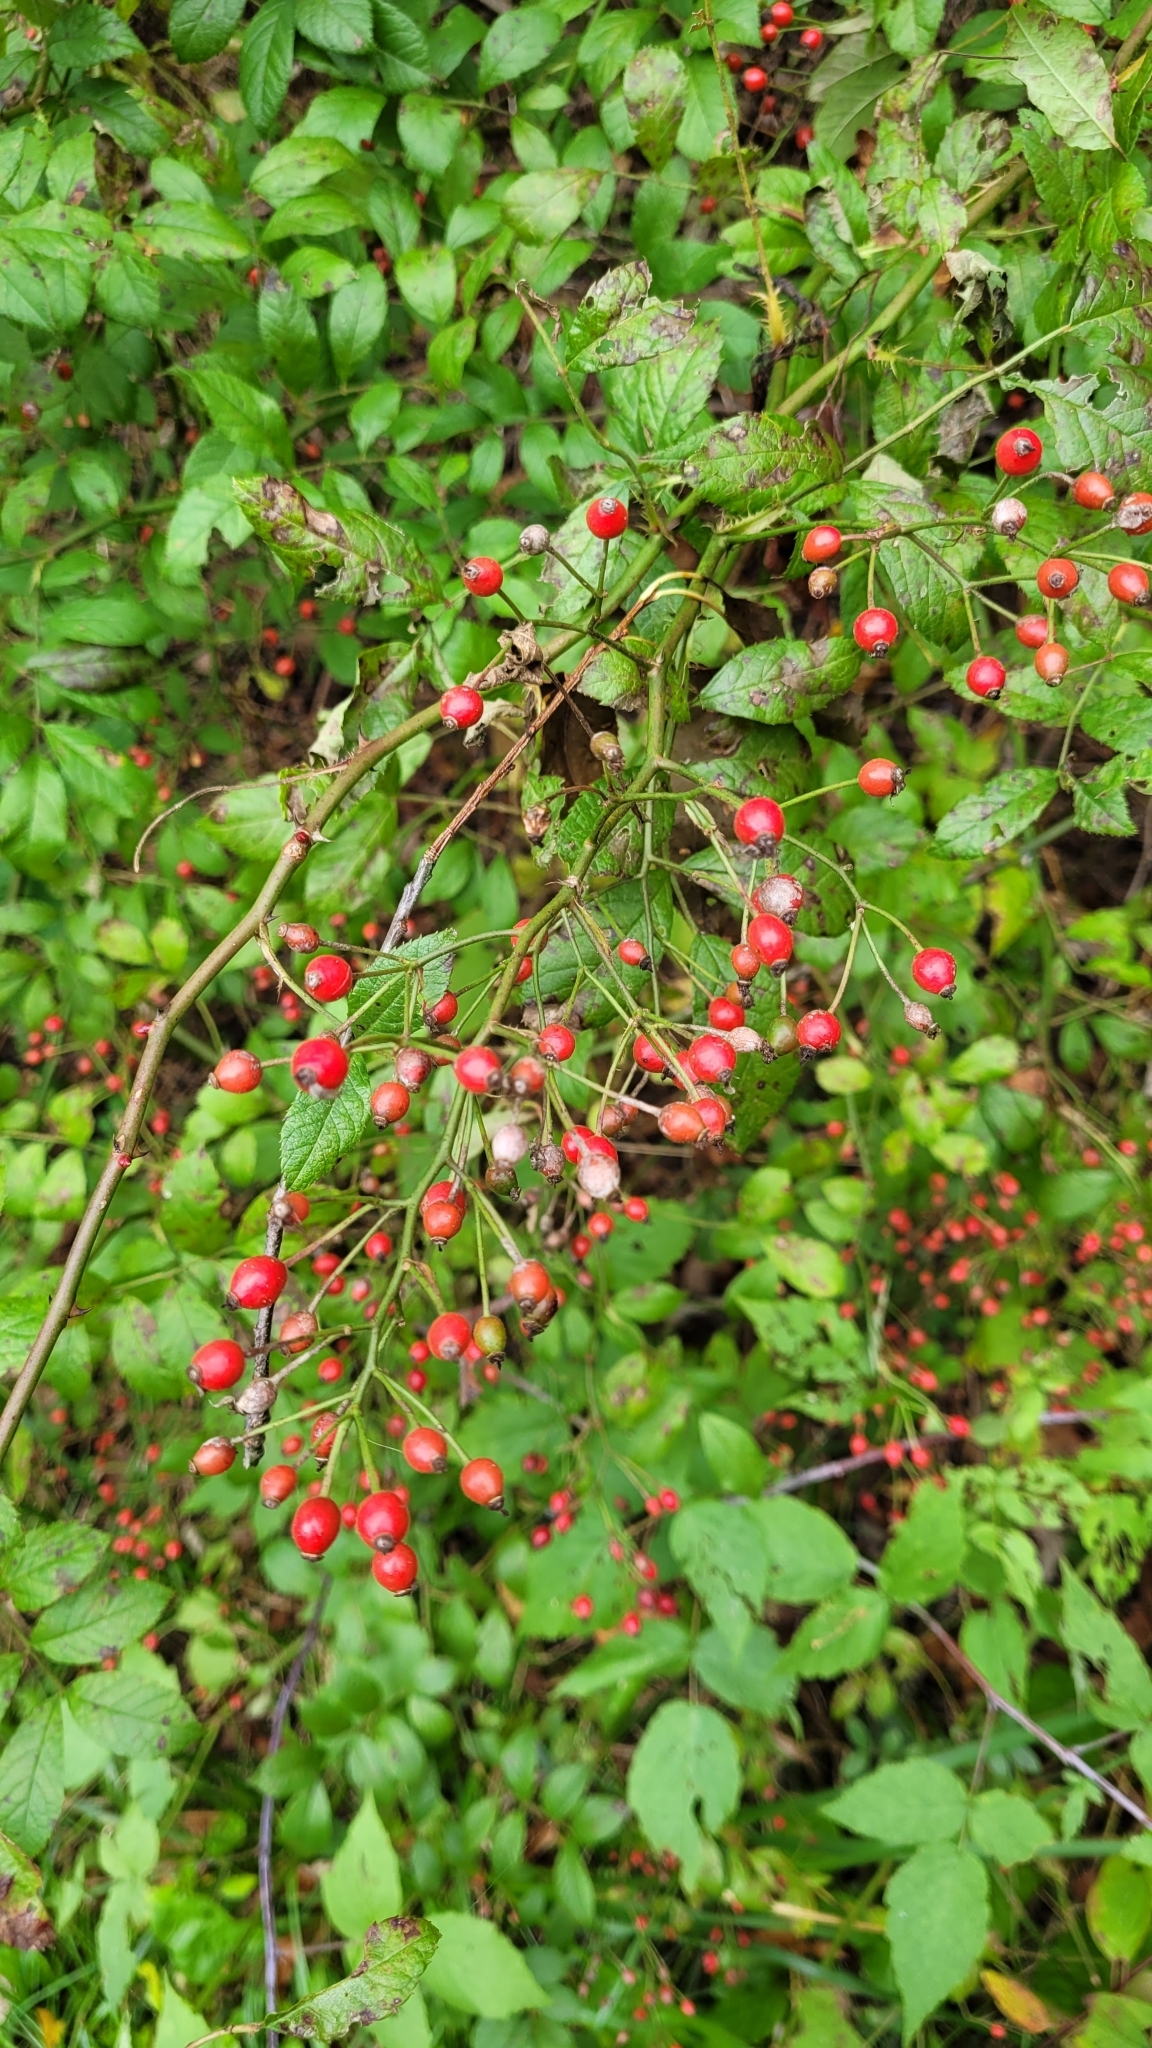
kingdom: Plantae
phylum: Tracheophyta
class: Magnoliopsida
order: Rosales
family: Rosaceae
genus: Rosa
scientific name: Rosa multiflora
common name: Multiflora rose
